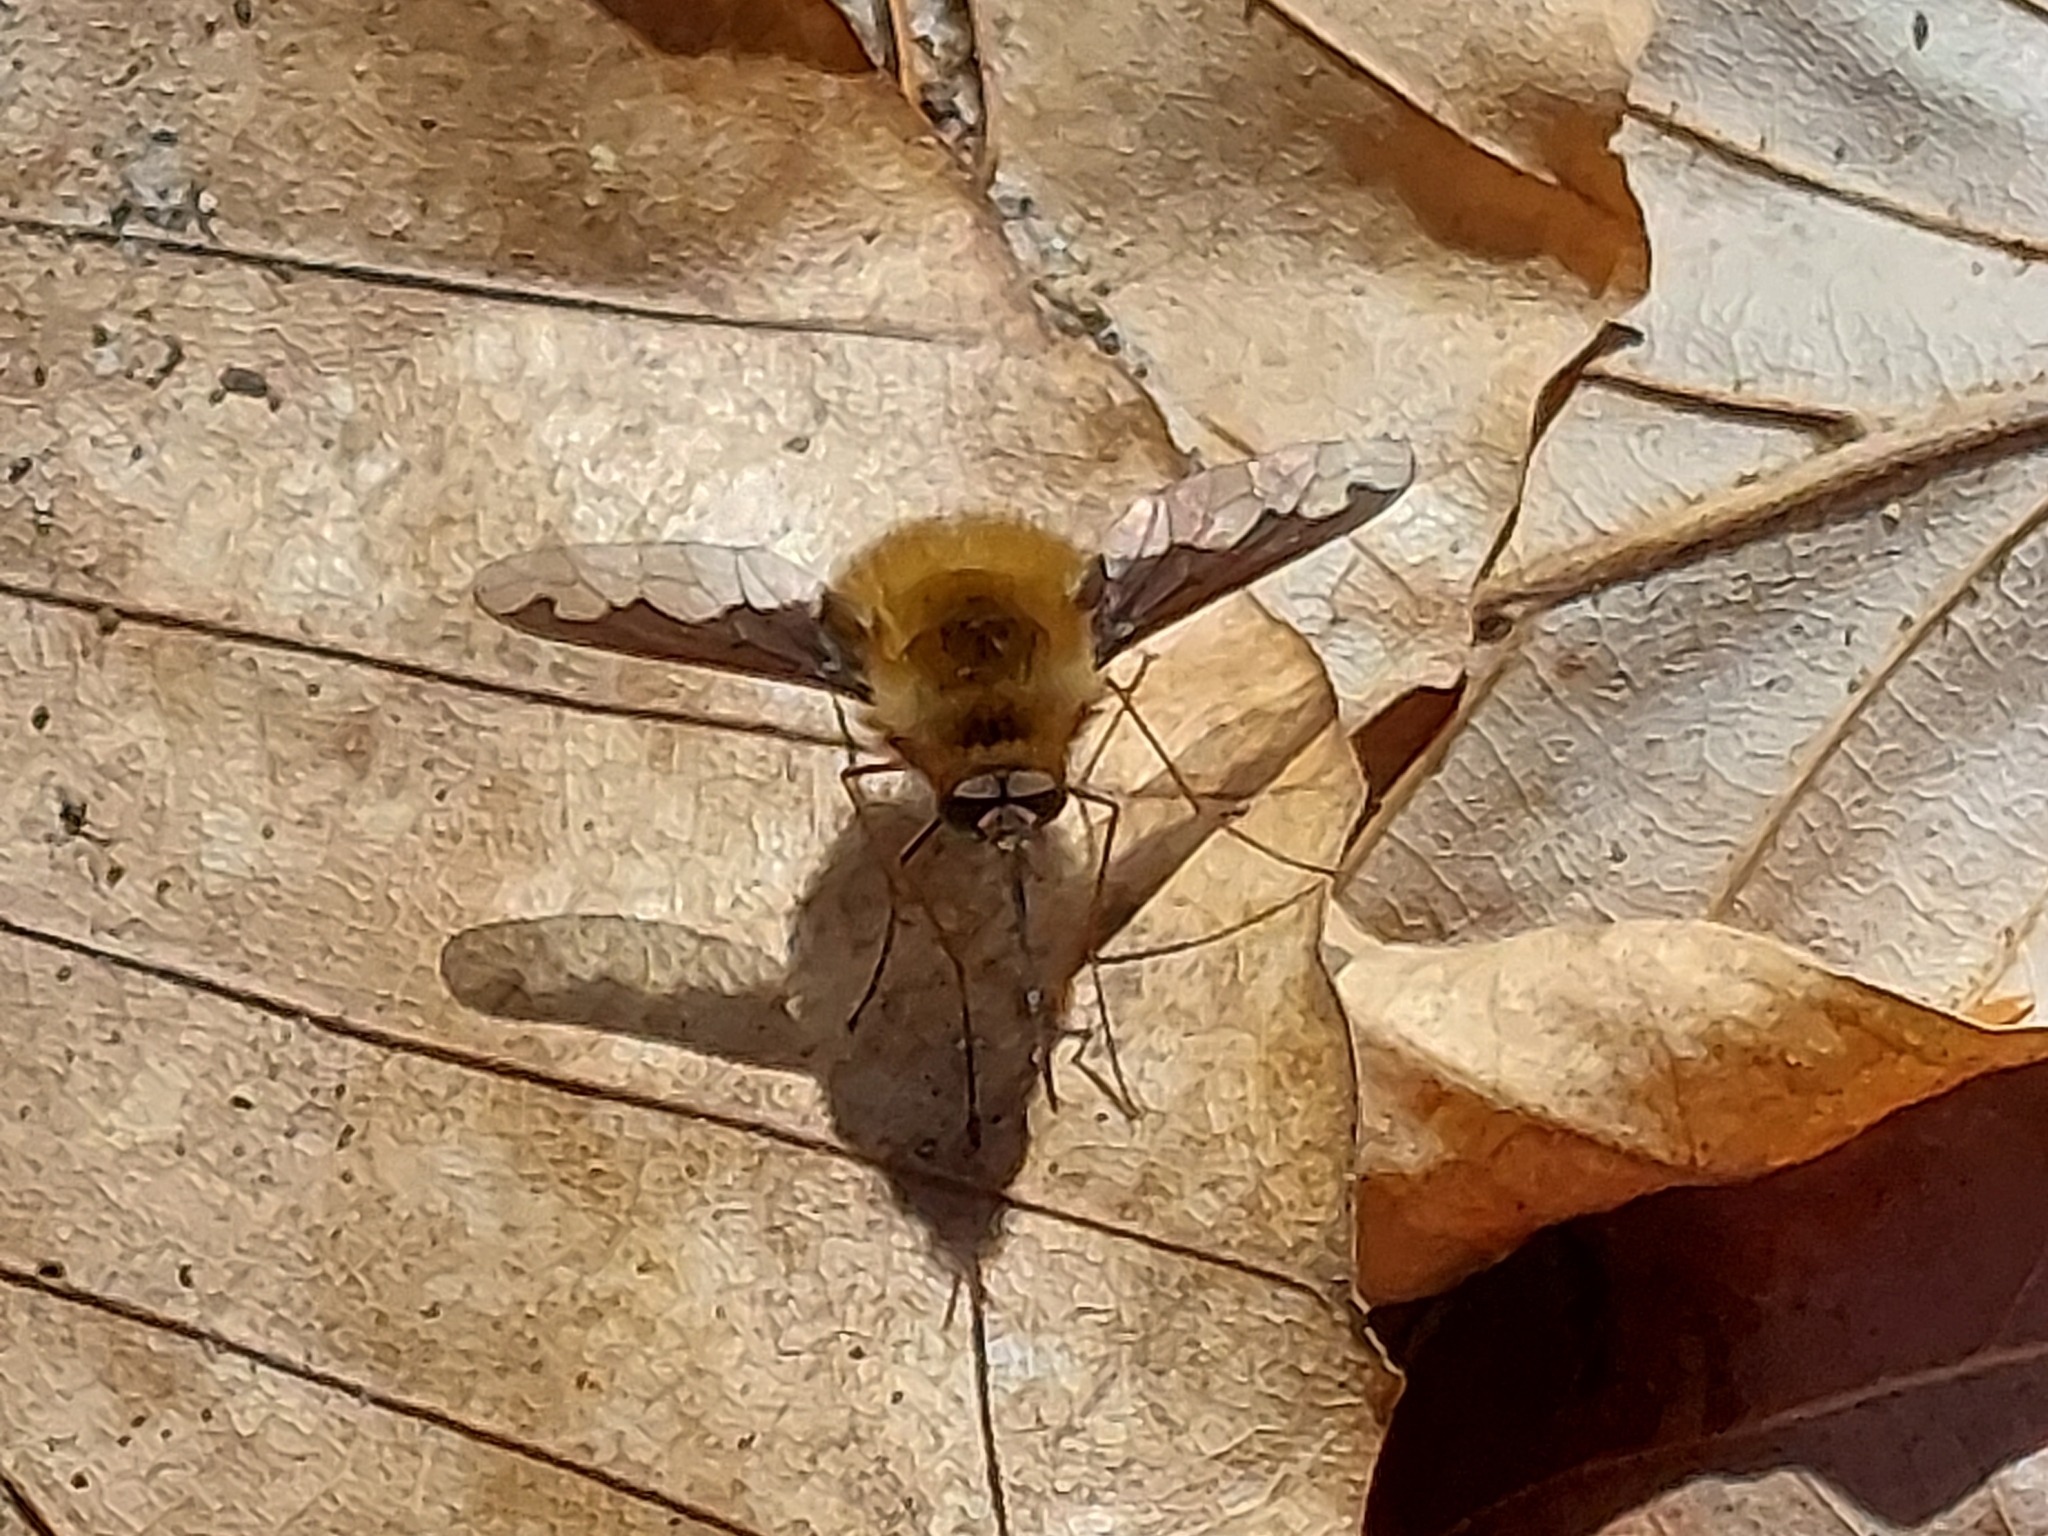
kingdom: Animalia
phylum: Arthropoda
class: Insecta
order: Diptera
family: Bombyliidae
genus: Bombylius
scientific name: Bombylius major
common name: Bee fly
